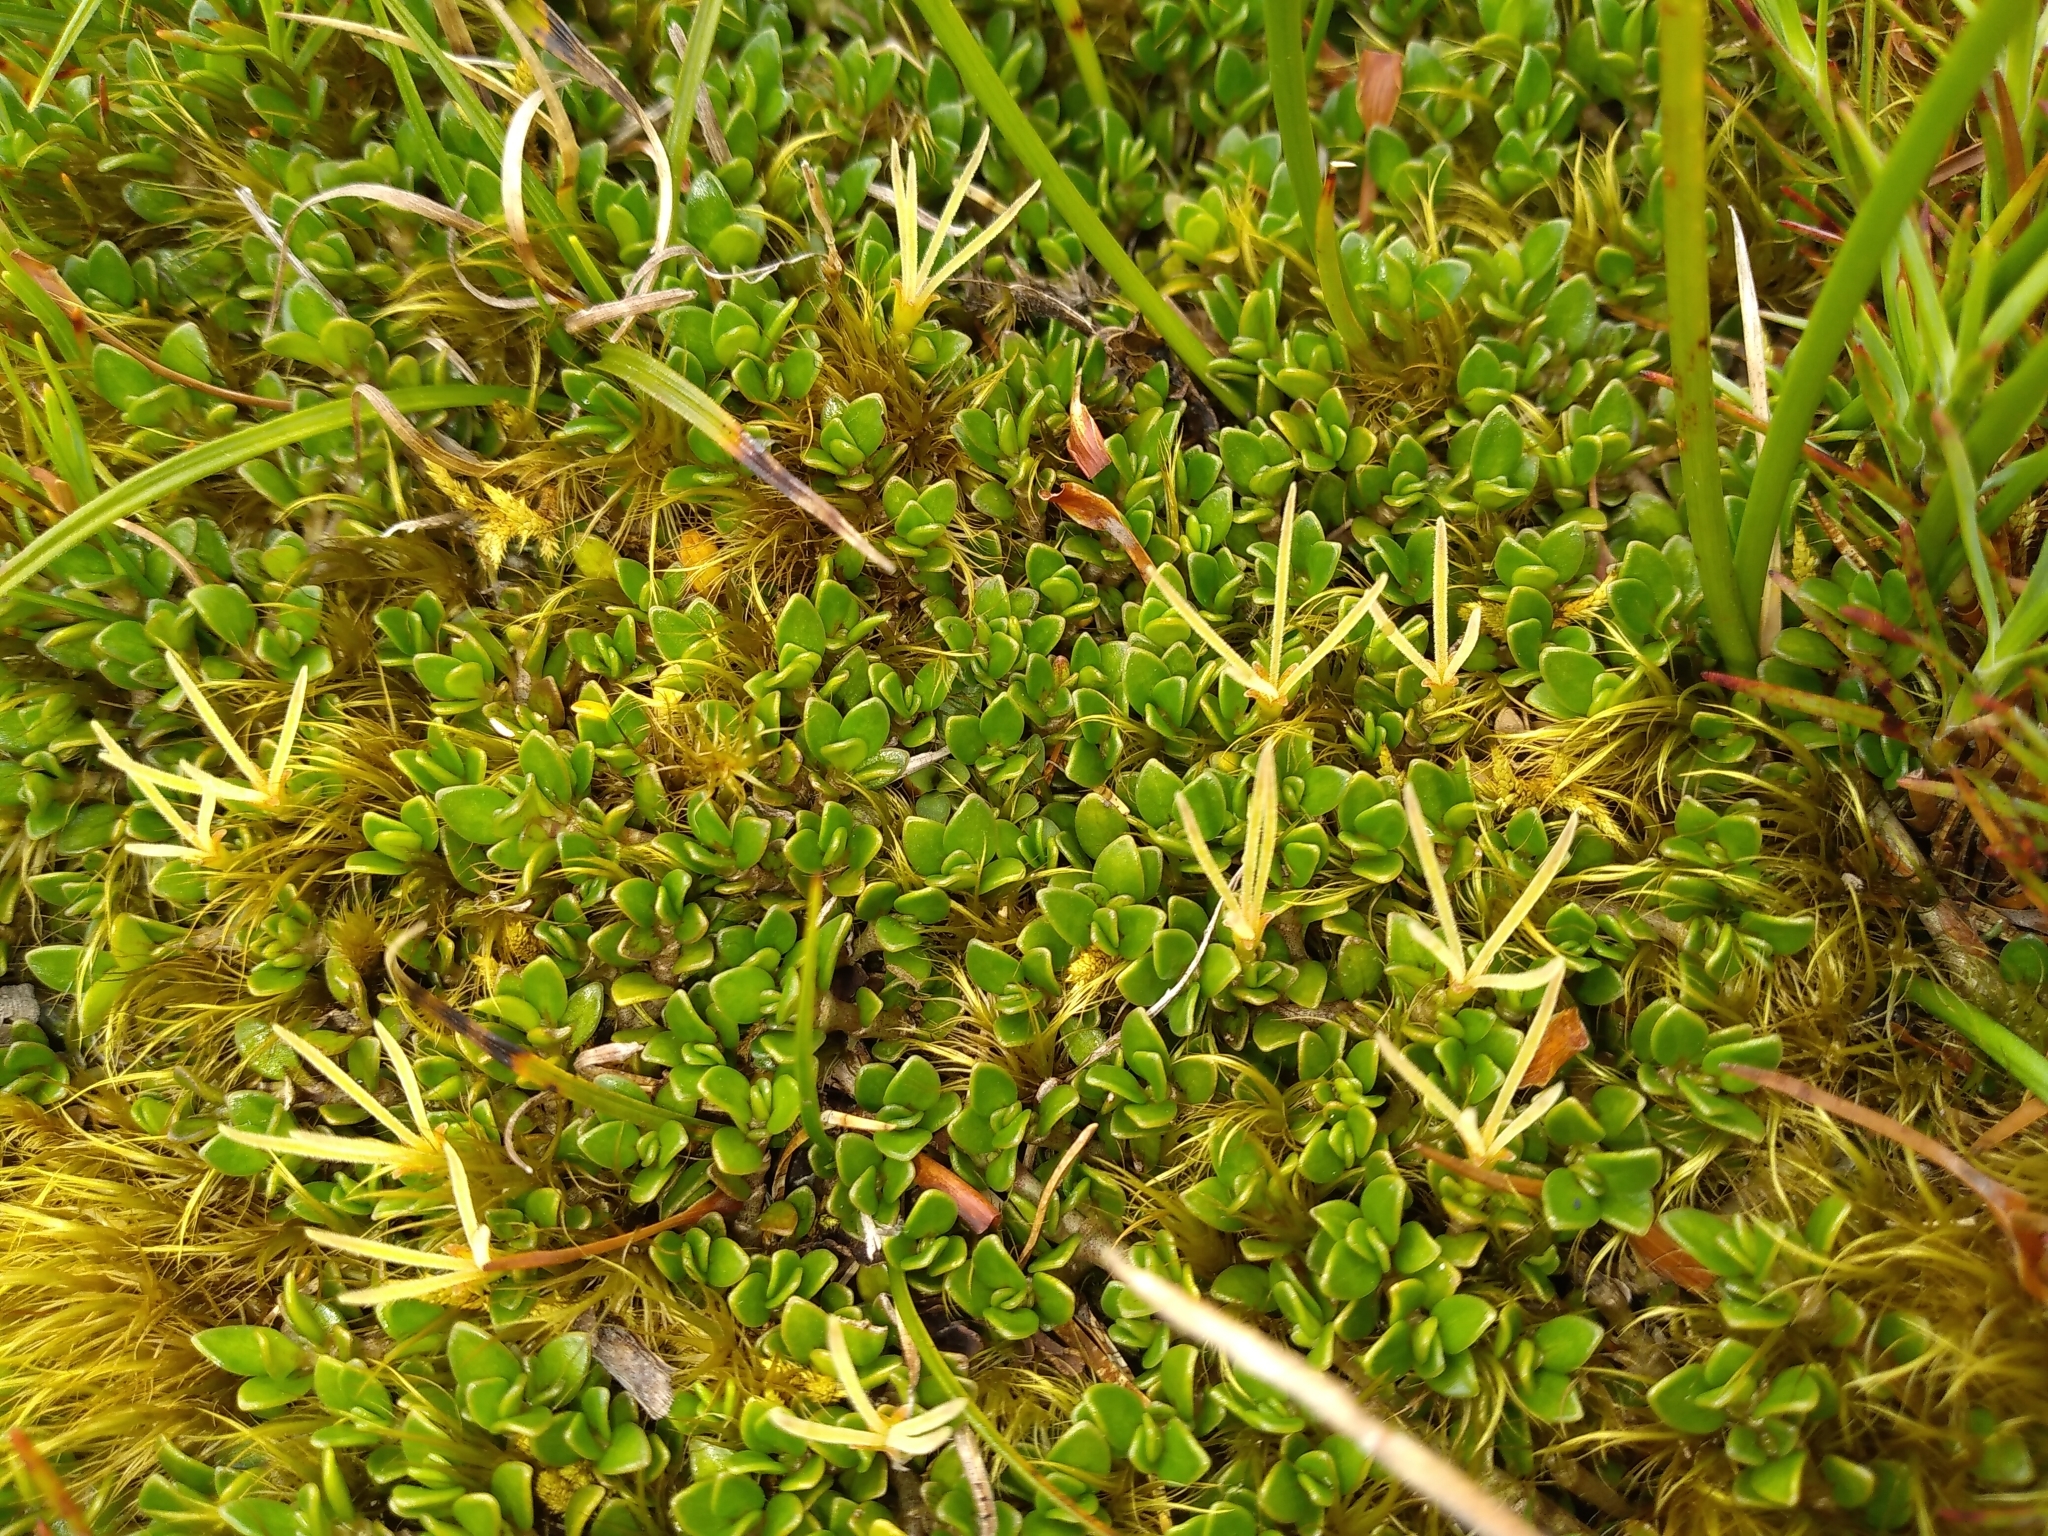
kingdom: Plantae
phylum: Tracheophyta
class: Magnoliopsida
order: Gentianales
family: Rubiaceae
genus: Coprosma
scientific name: Coprosma perpusilla
